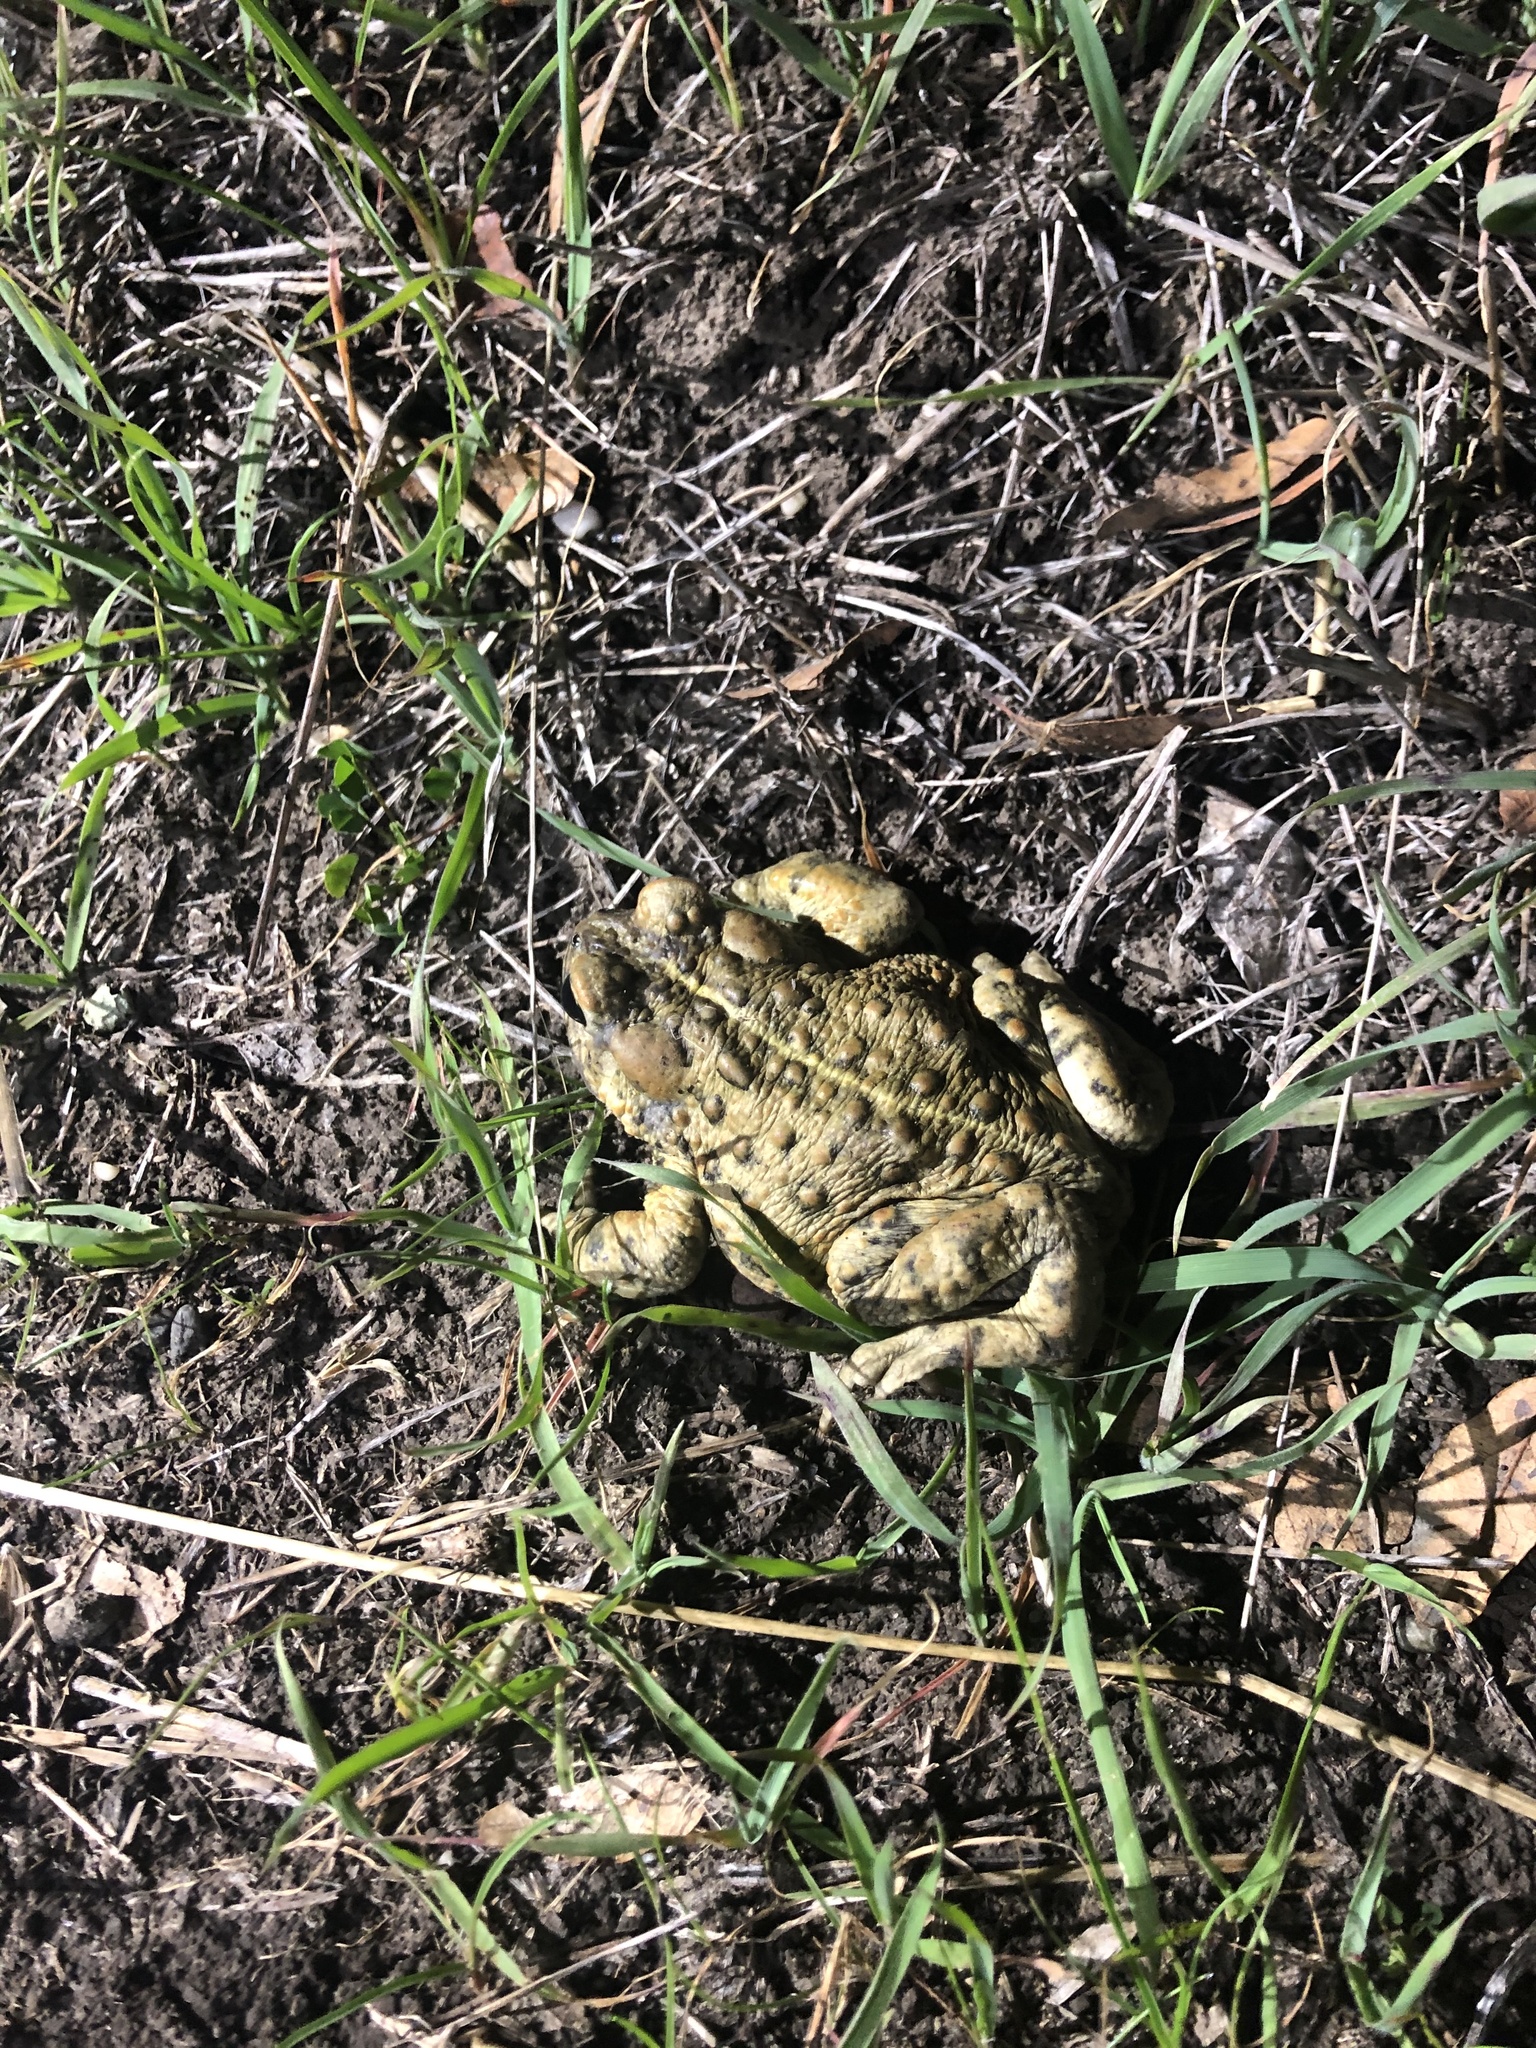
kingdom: Animalia
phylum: Chordata
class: Amphibia
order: Anura
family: Bufonidae
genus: Anaxyrus
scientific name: Anaxyrus boreas
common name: Western toad
